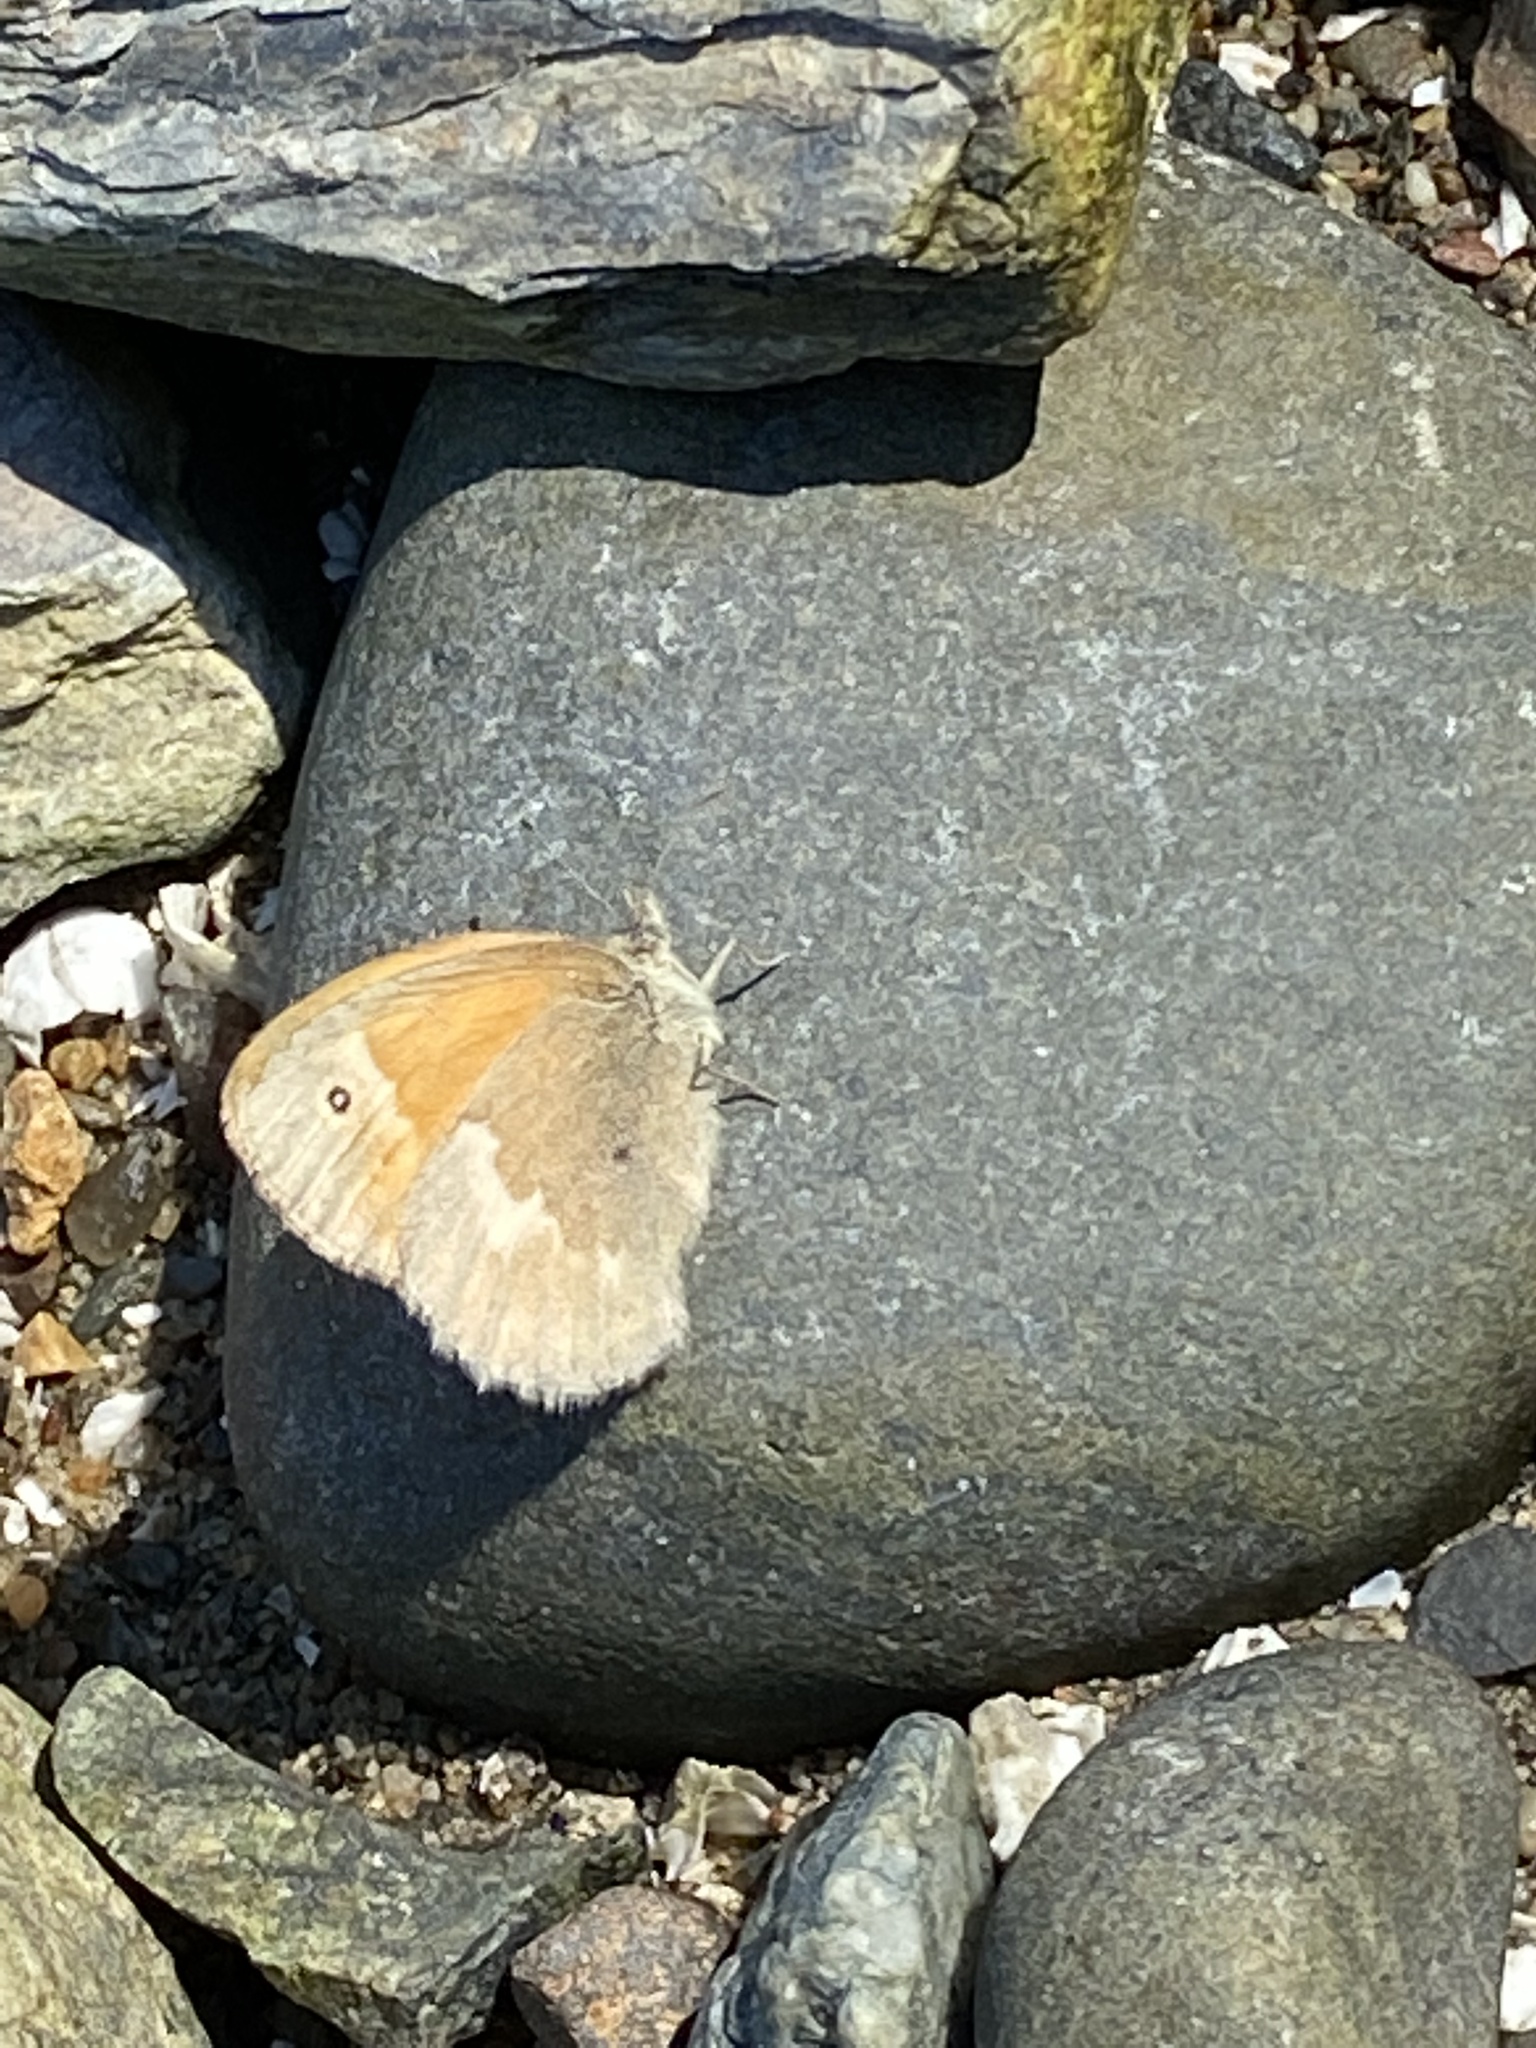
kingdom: Animalia
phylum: Arthropoda
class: Insecta
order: Lepidoptera
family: Nymphalidae
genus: Coenonympha
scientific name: Coenonympha california
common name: Common ringlet
